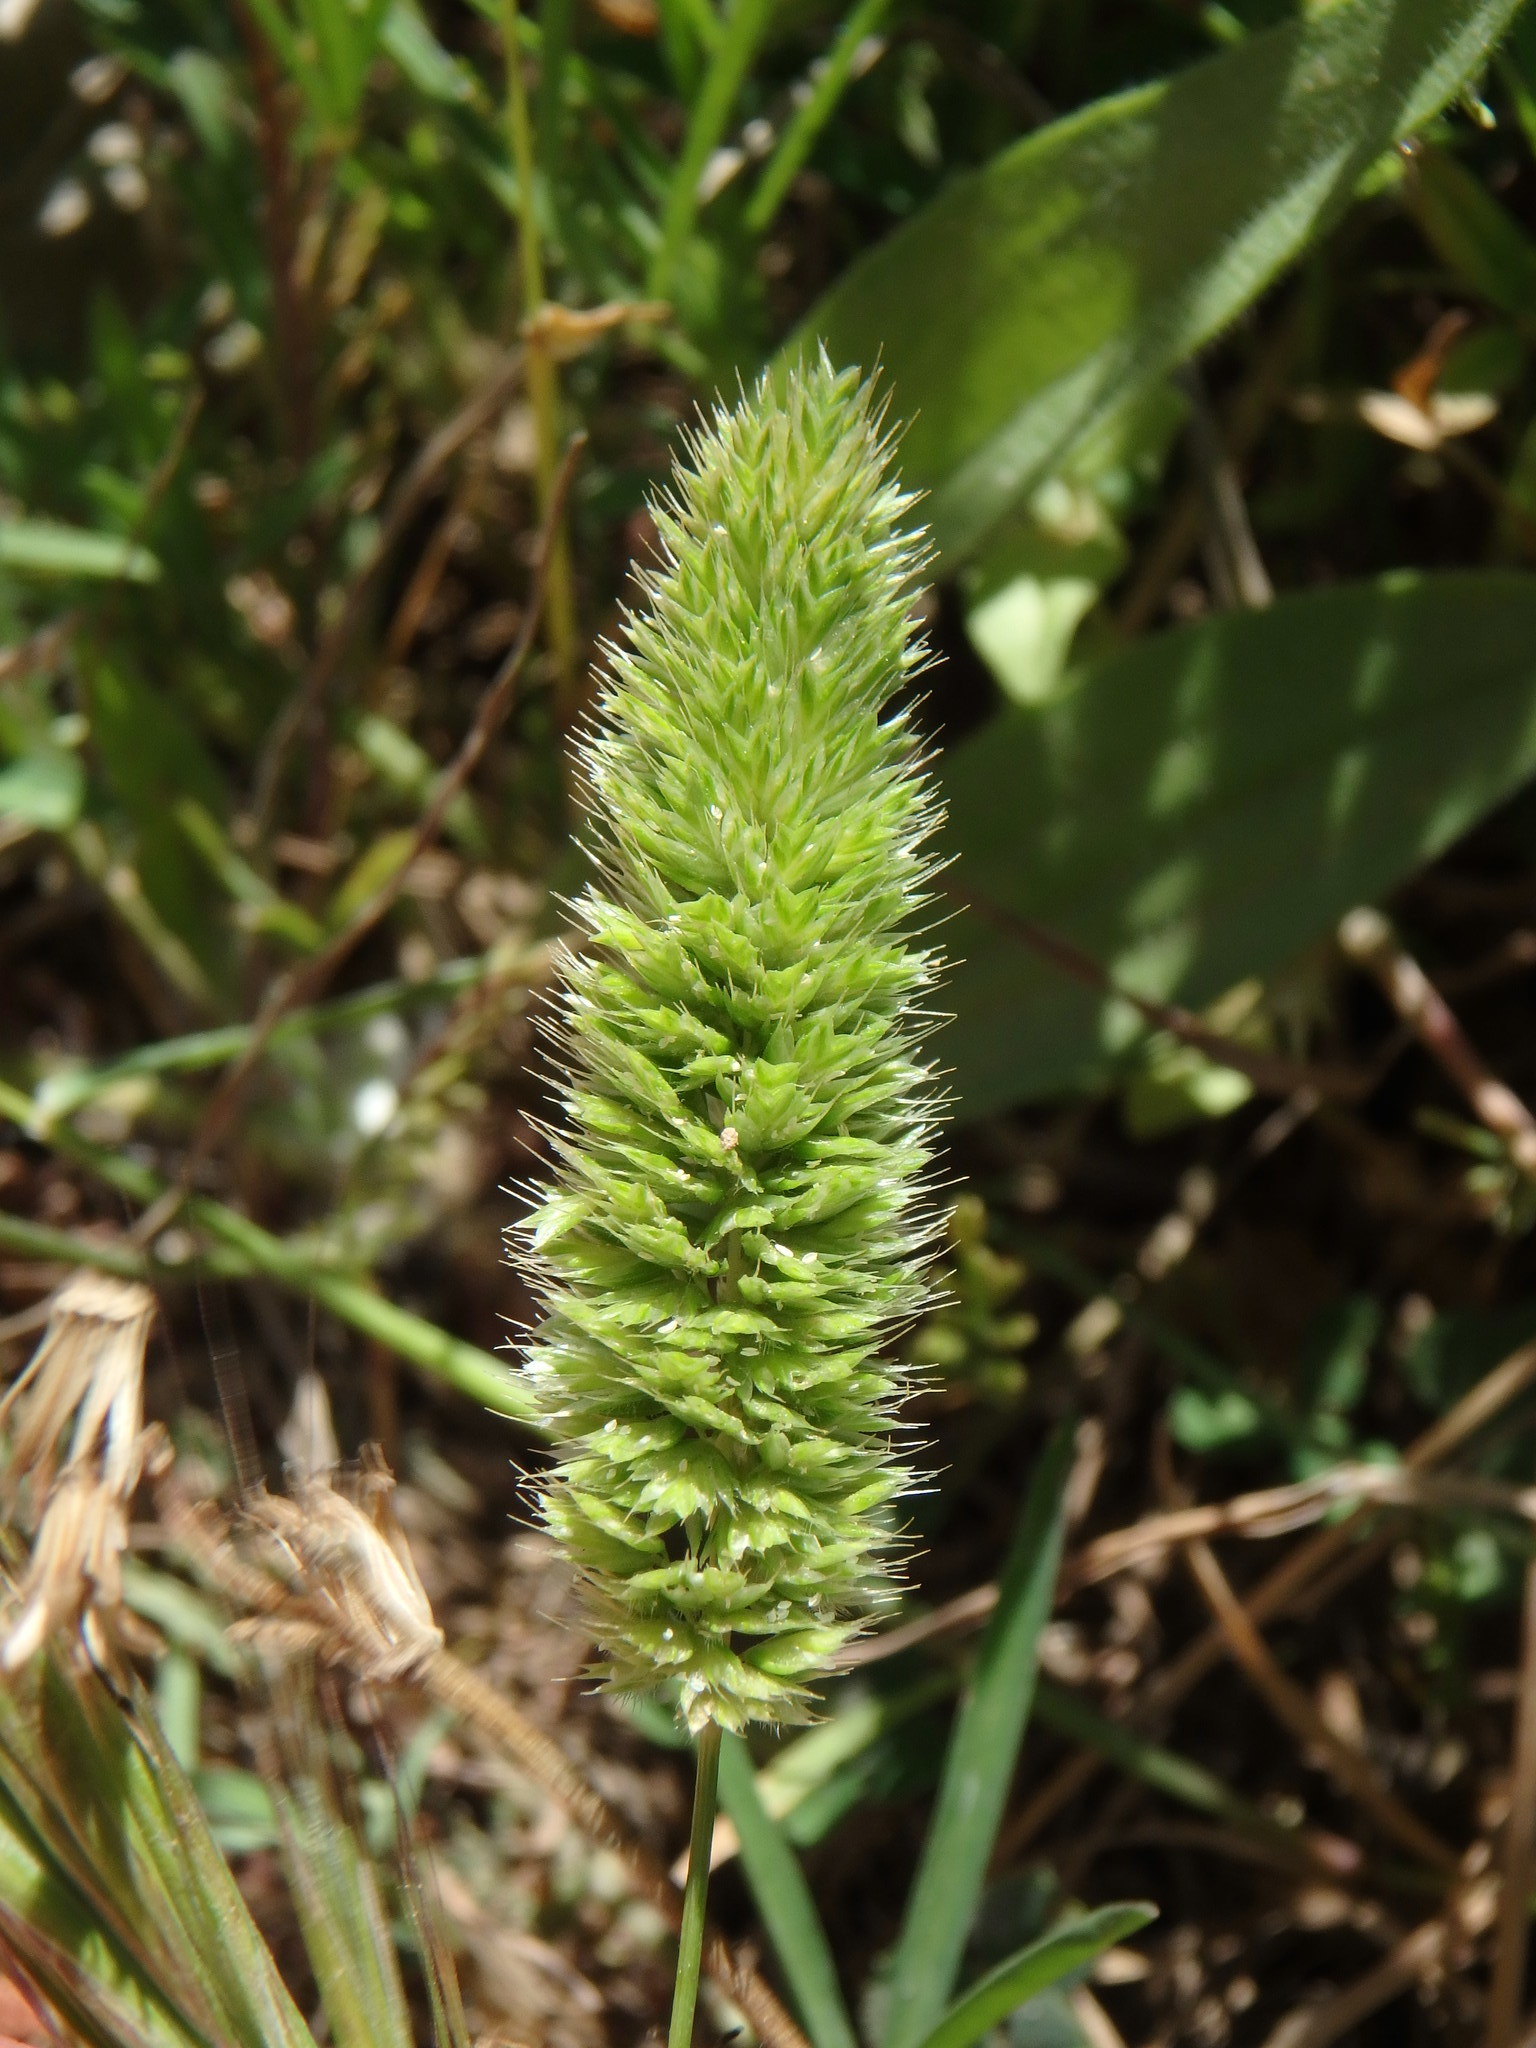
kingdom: Plantae
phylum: Tracheophyta
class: Liliopsida
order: Poales
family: Poaceae
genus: Rostraria
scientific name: Rostraria cristata
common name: Mediterranean hair-grass
